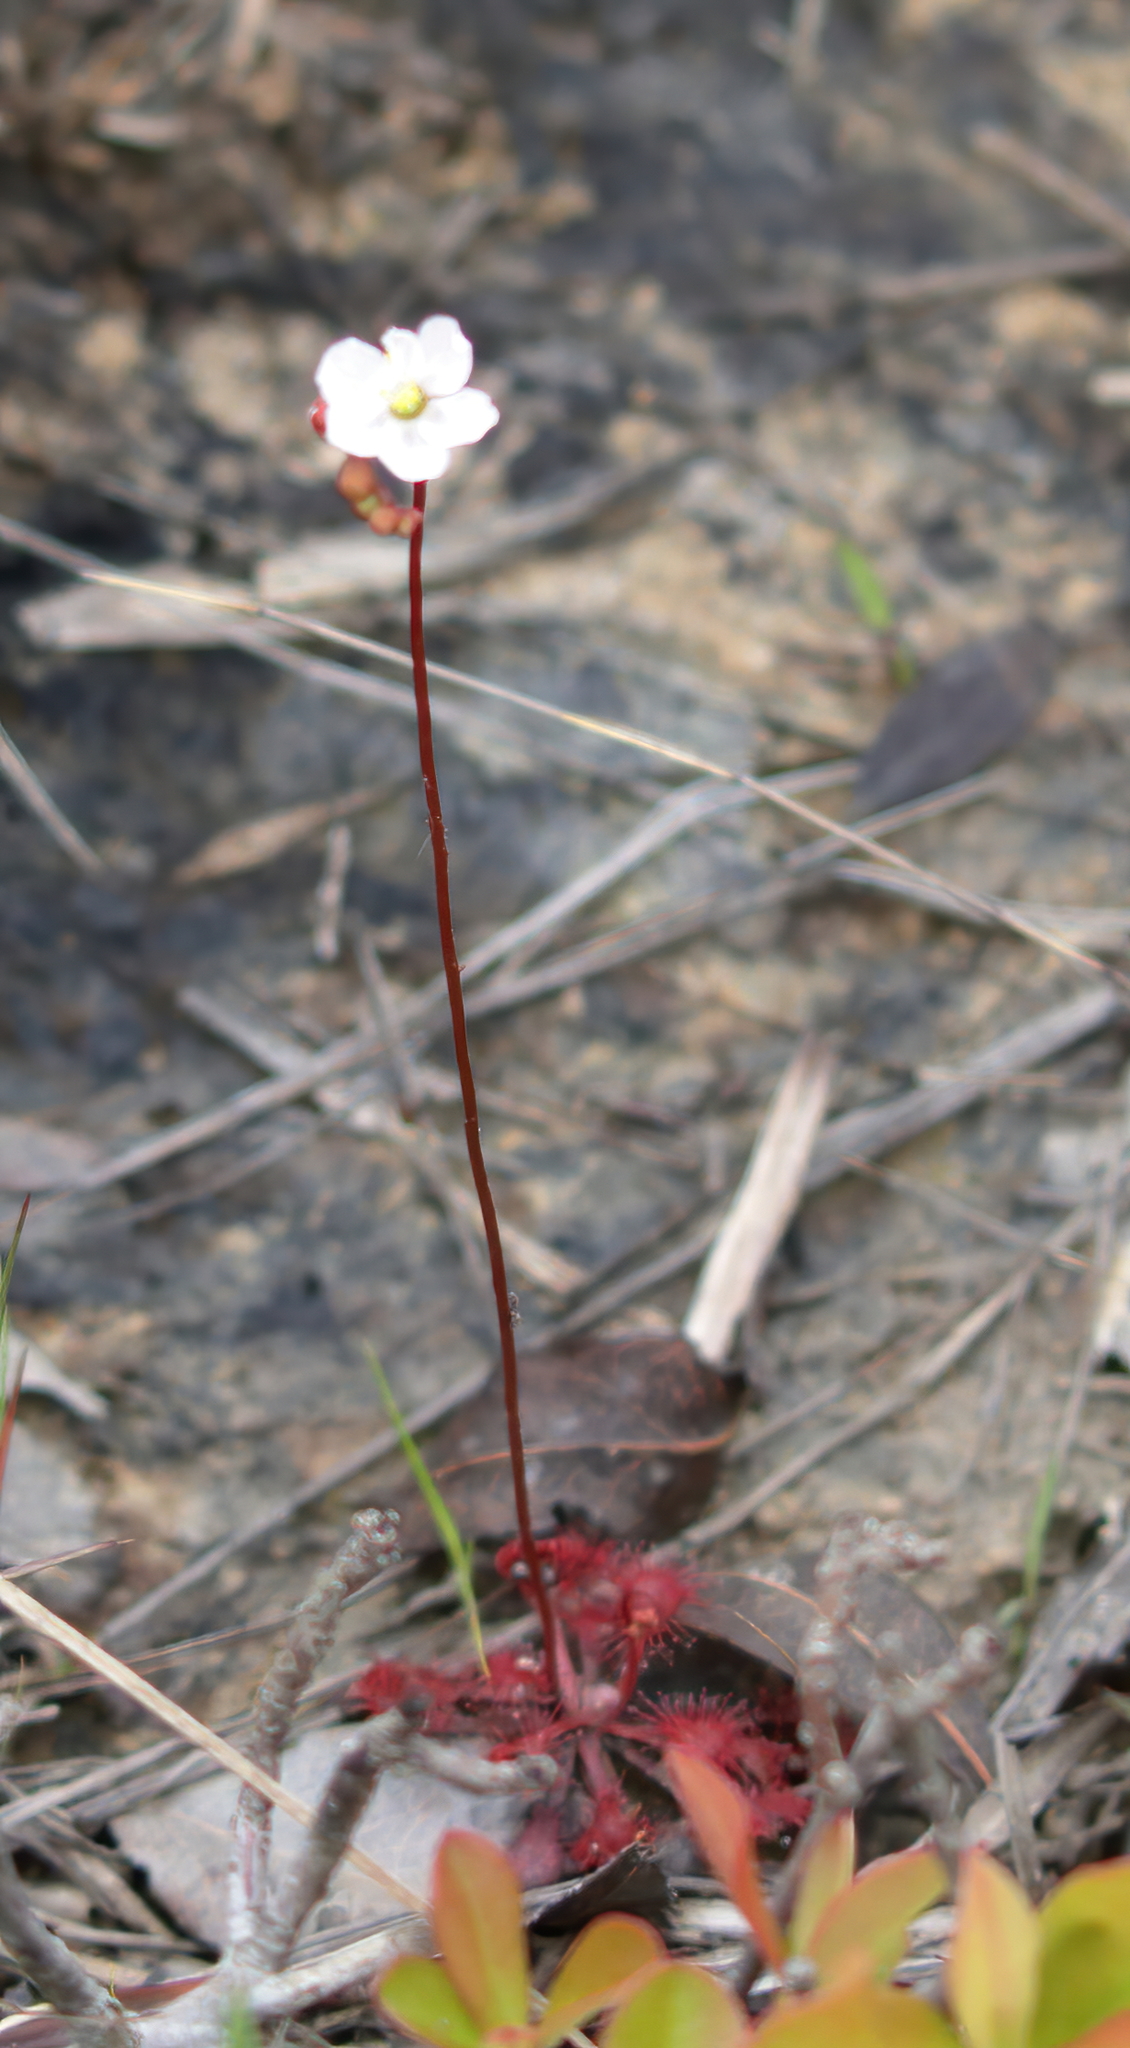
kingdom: Plantae
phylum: Tracheophyta
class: Magnoliopsida
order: Caryophyllales
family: Droseraceae
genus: Drosera
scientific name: Drosera capillaris
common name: Pink sundew
